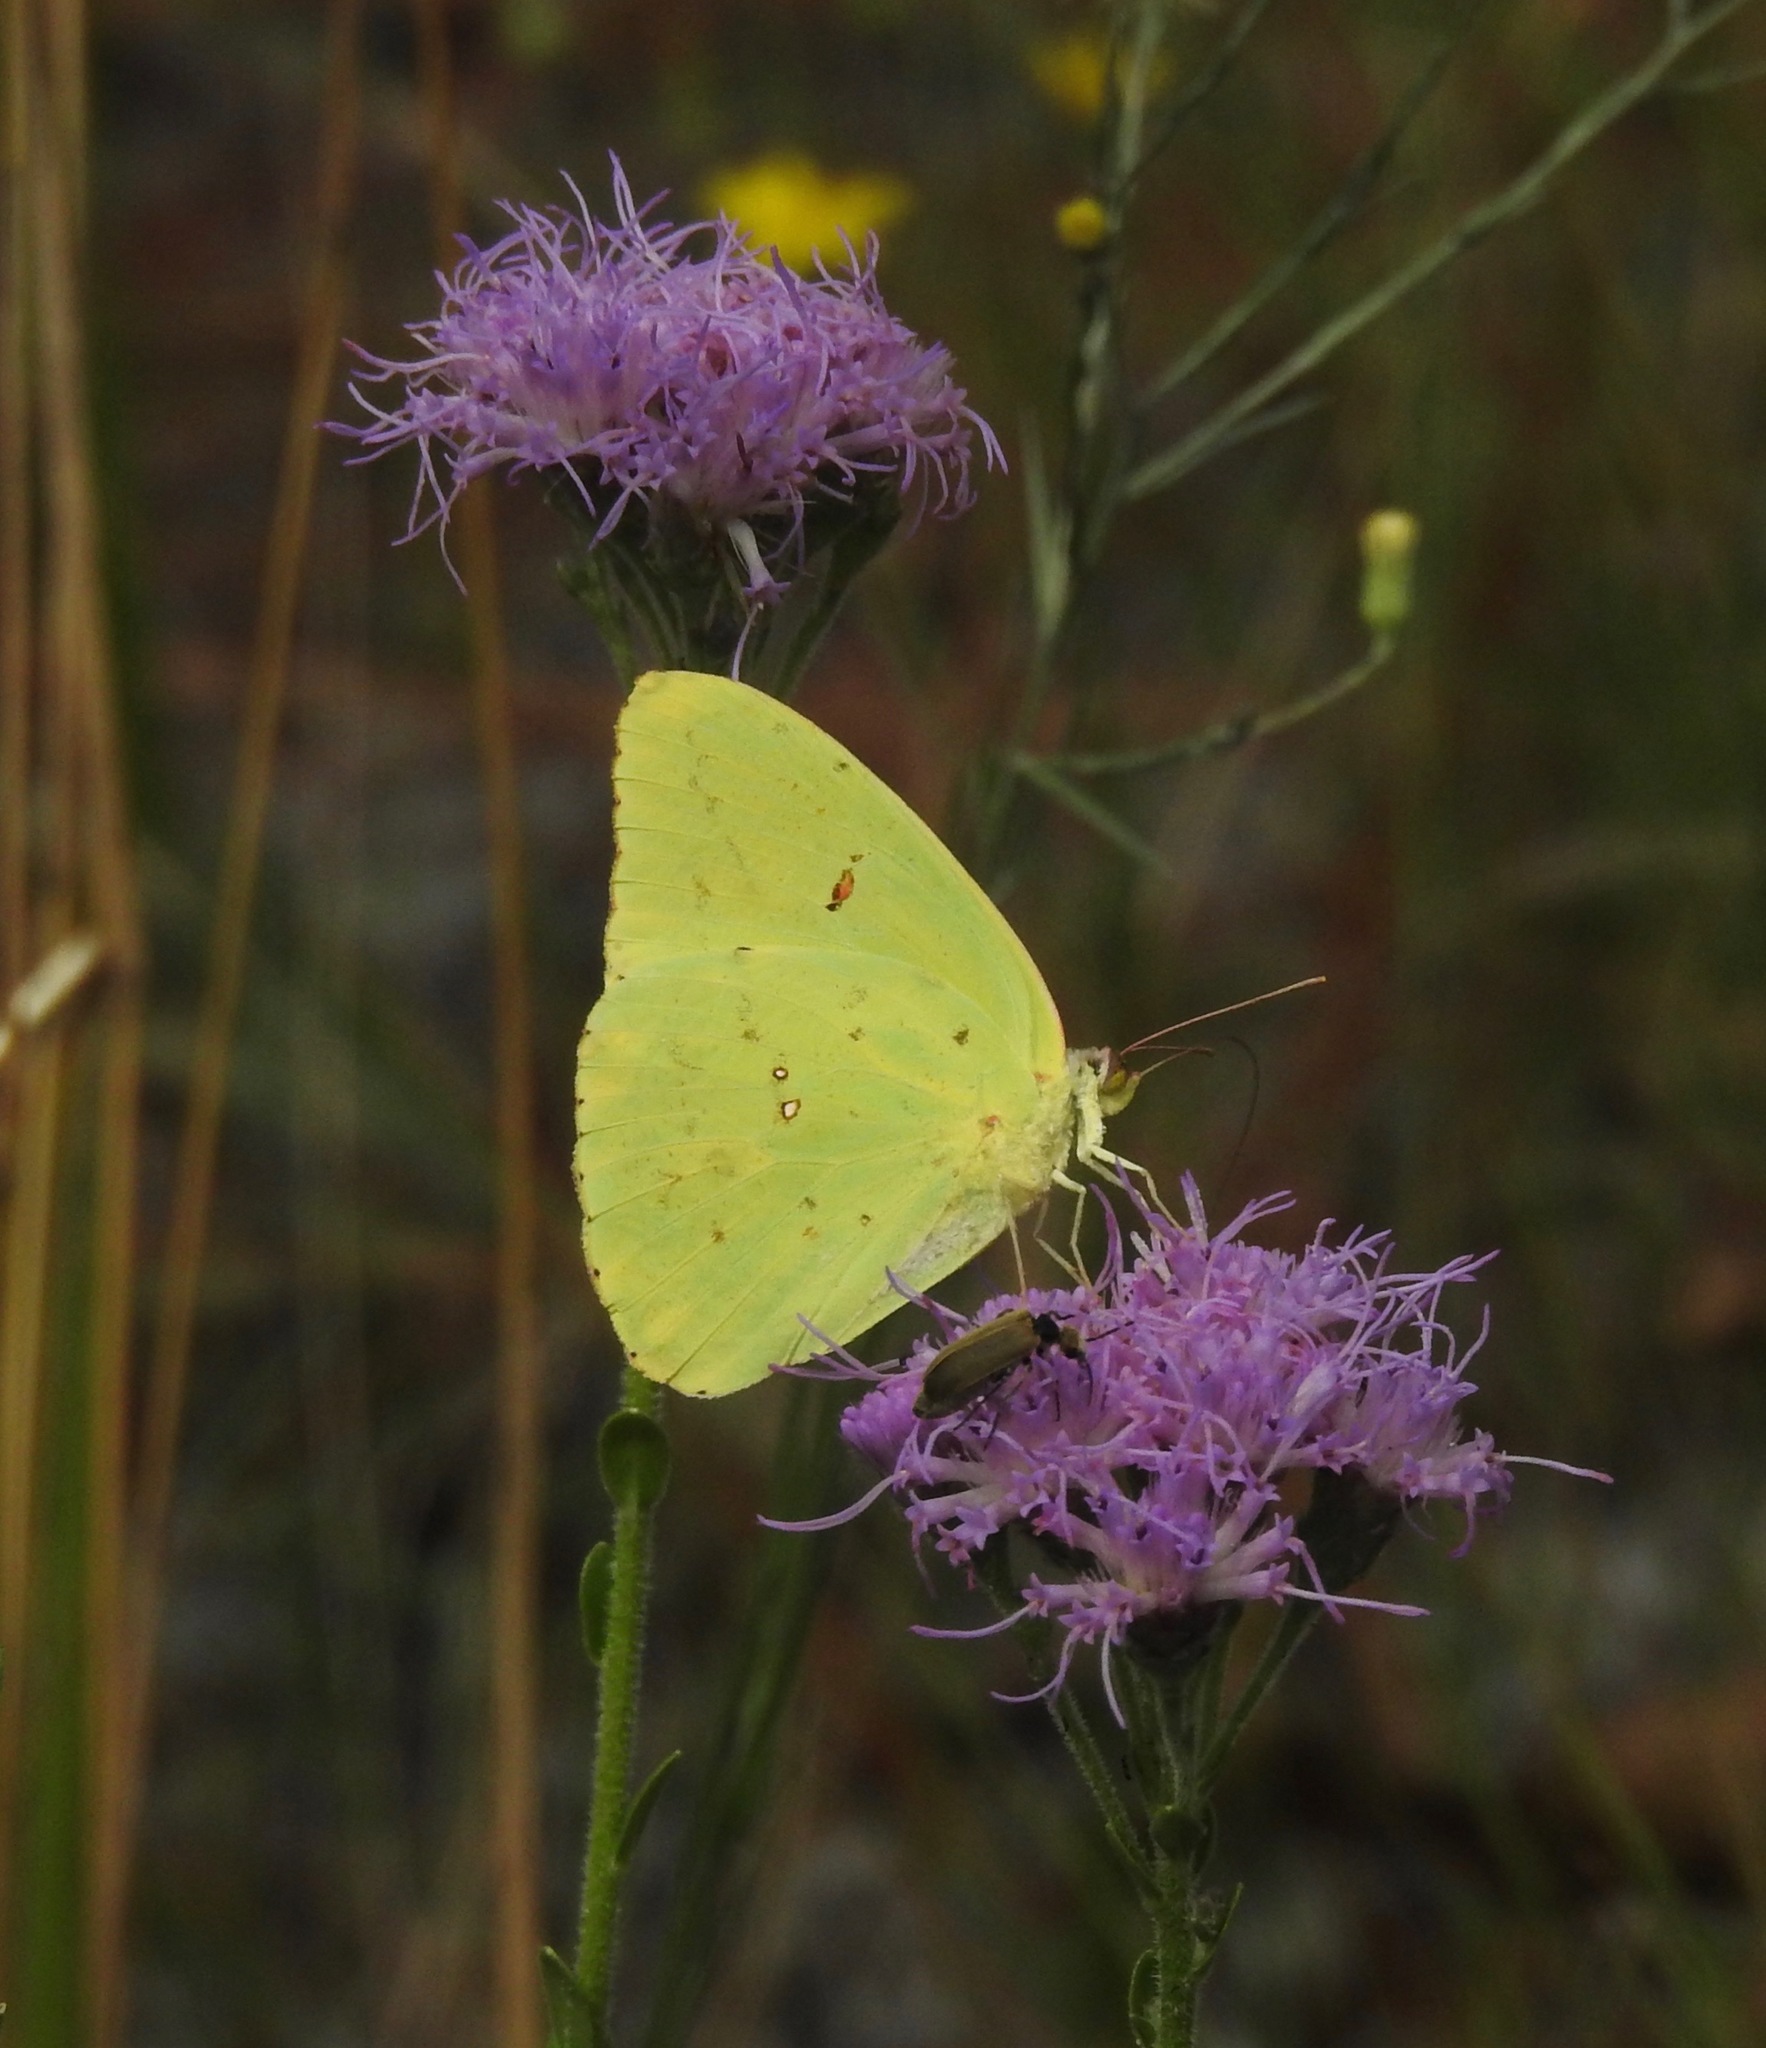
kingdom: Animalia
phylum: Arthropoda
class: Insecta
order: Lepidoptera
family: Pieridae
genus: Phoebis
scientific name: Phoebis sennae
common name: Cloudless sulphur
